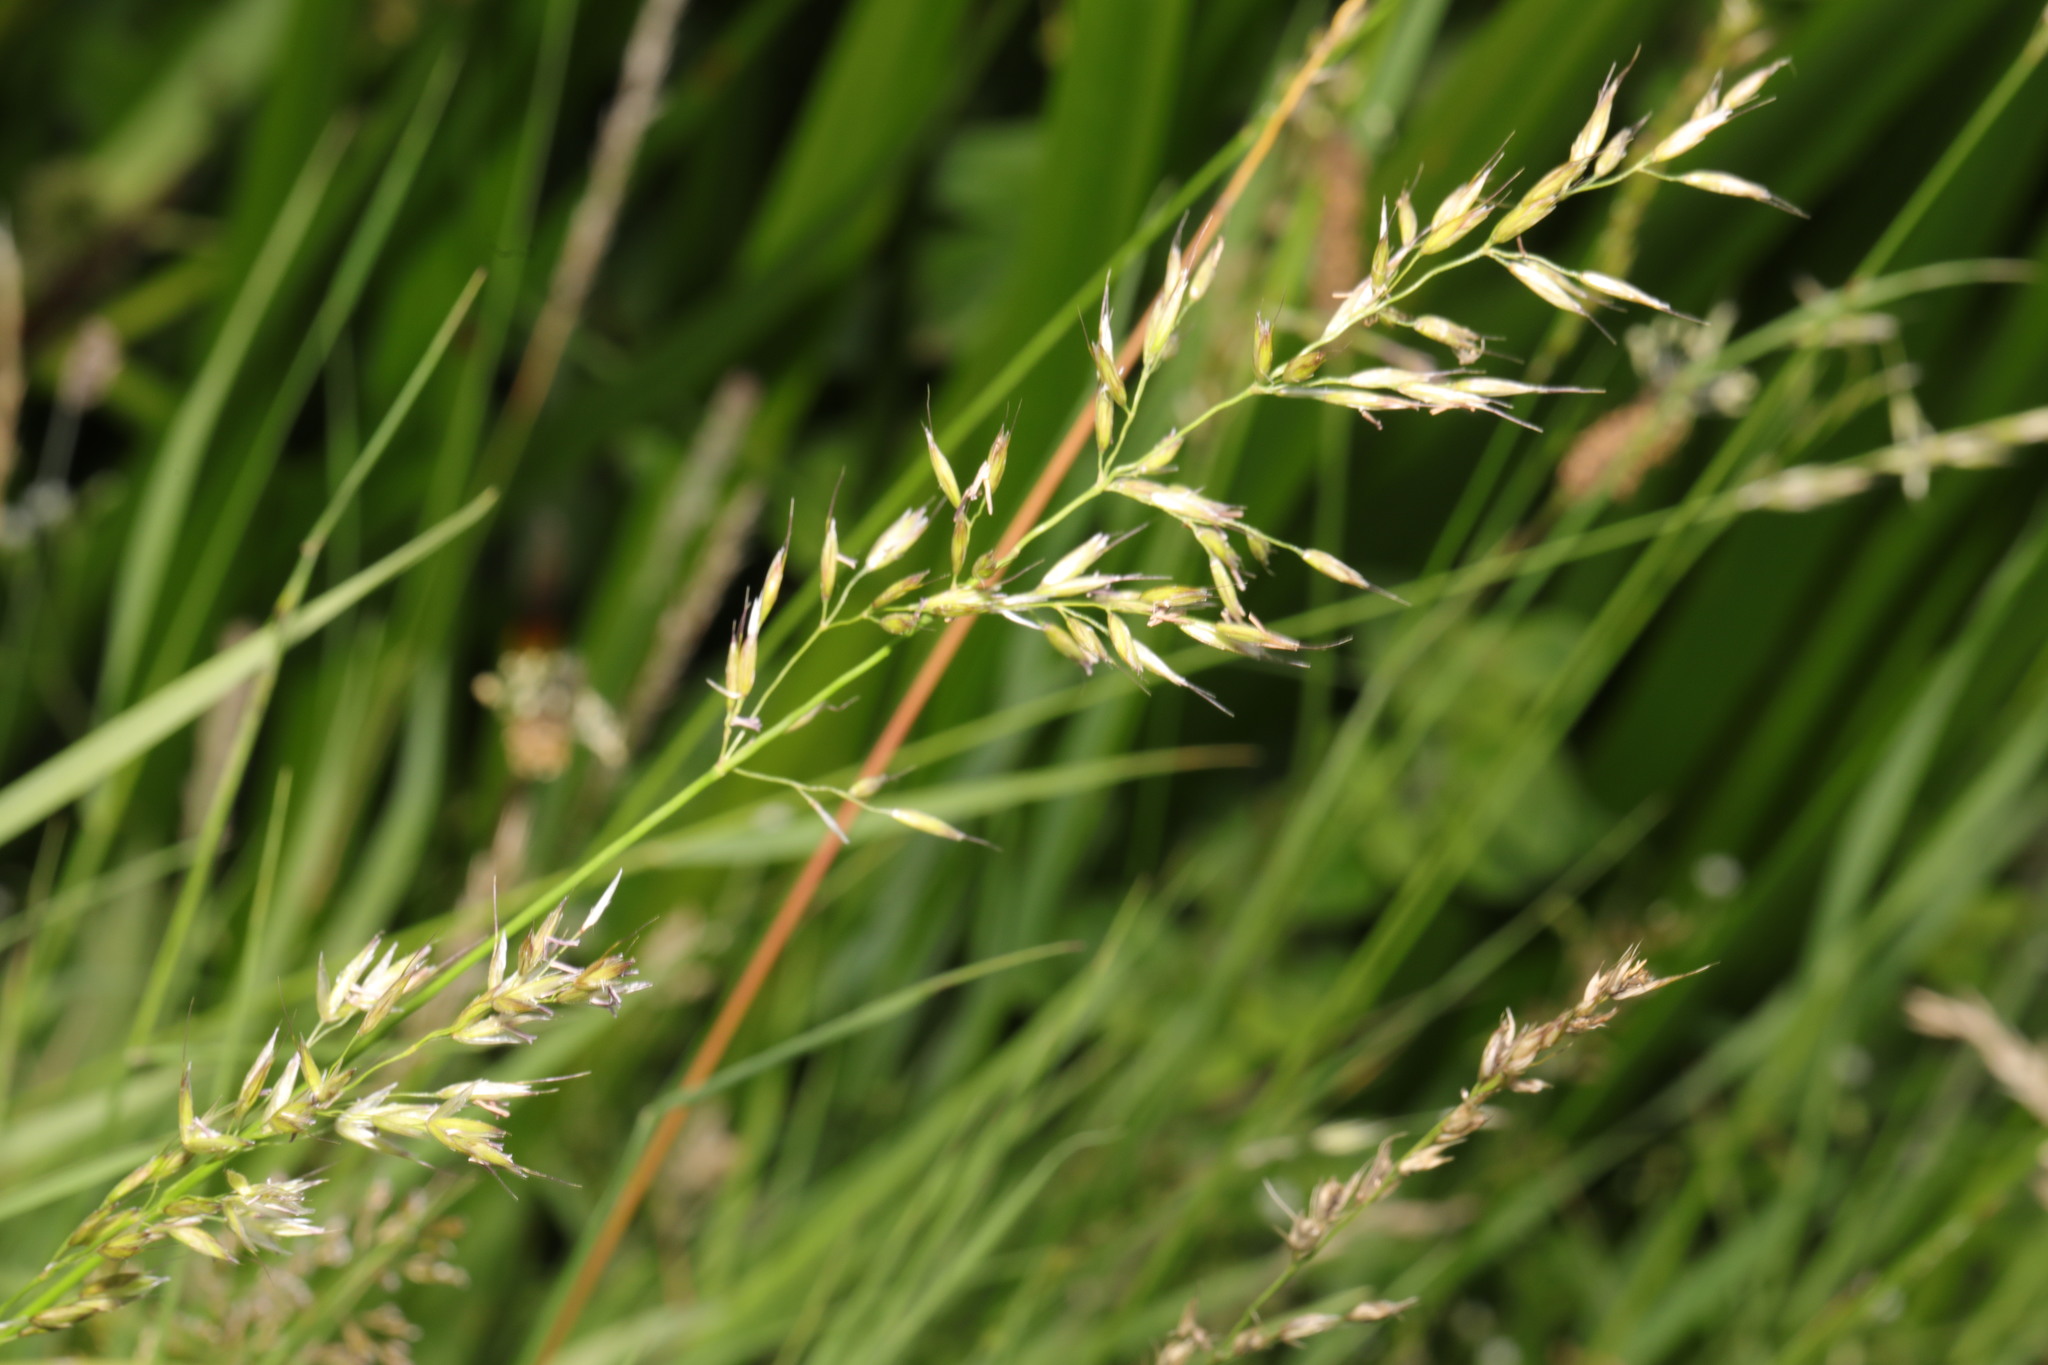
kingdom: Plantae
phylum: Tracheophyta
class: Liliopsida
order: Poales
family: Poaceae
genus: Arrhenatherum
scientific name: Arrhenatherum elatius
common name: Tall oatgrass
